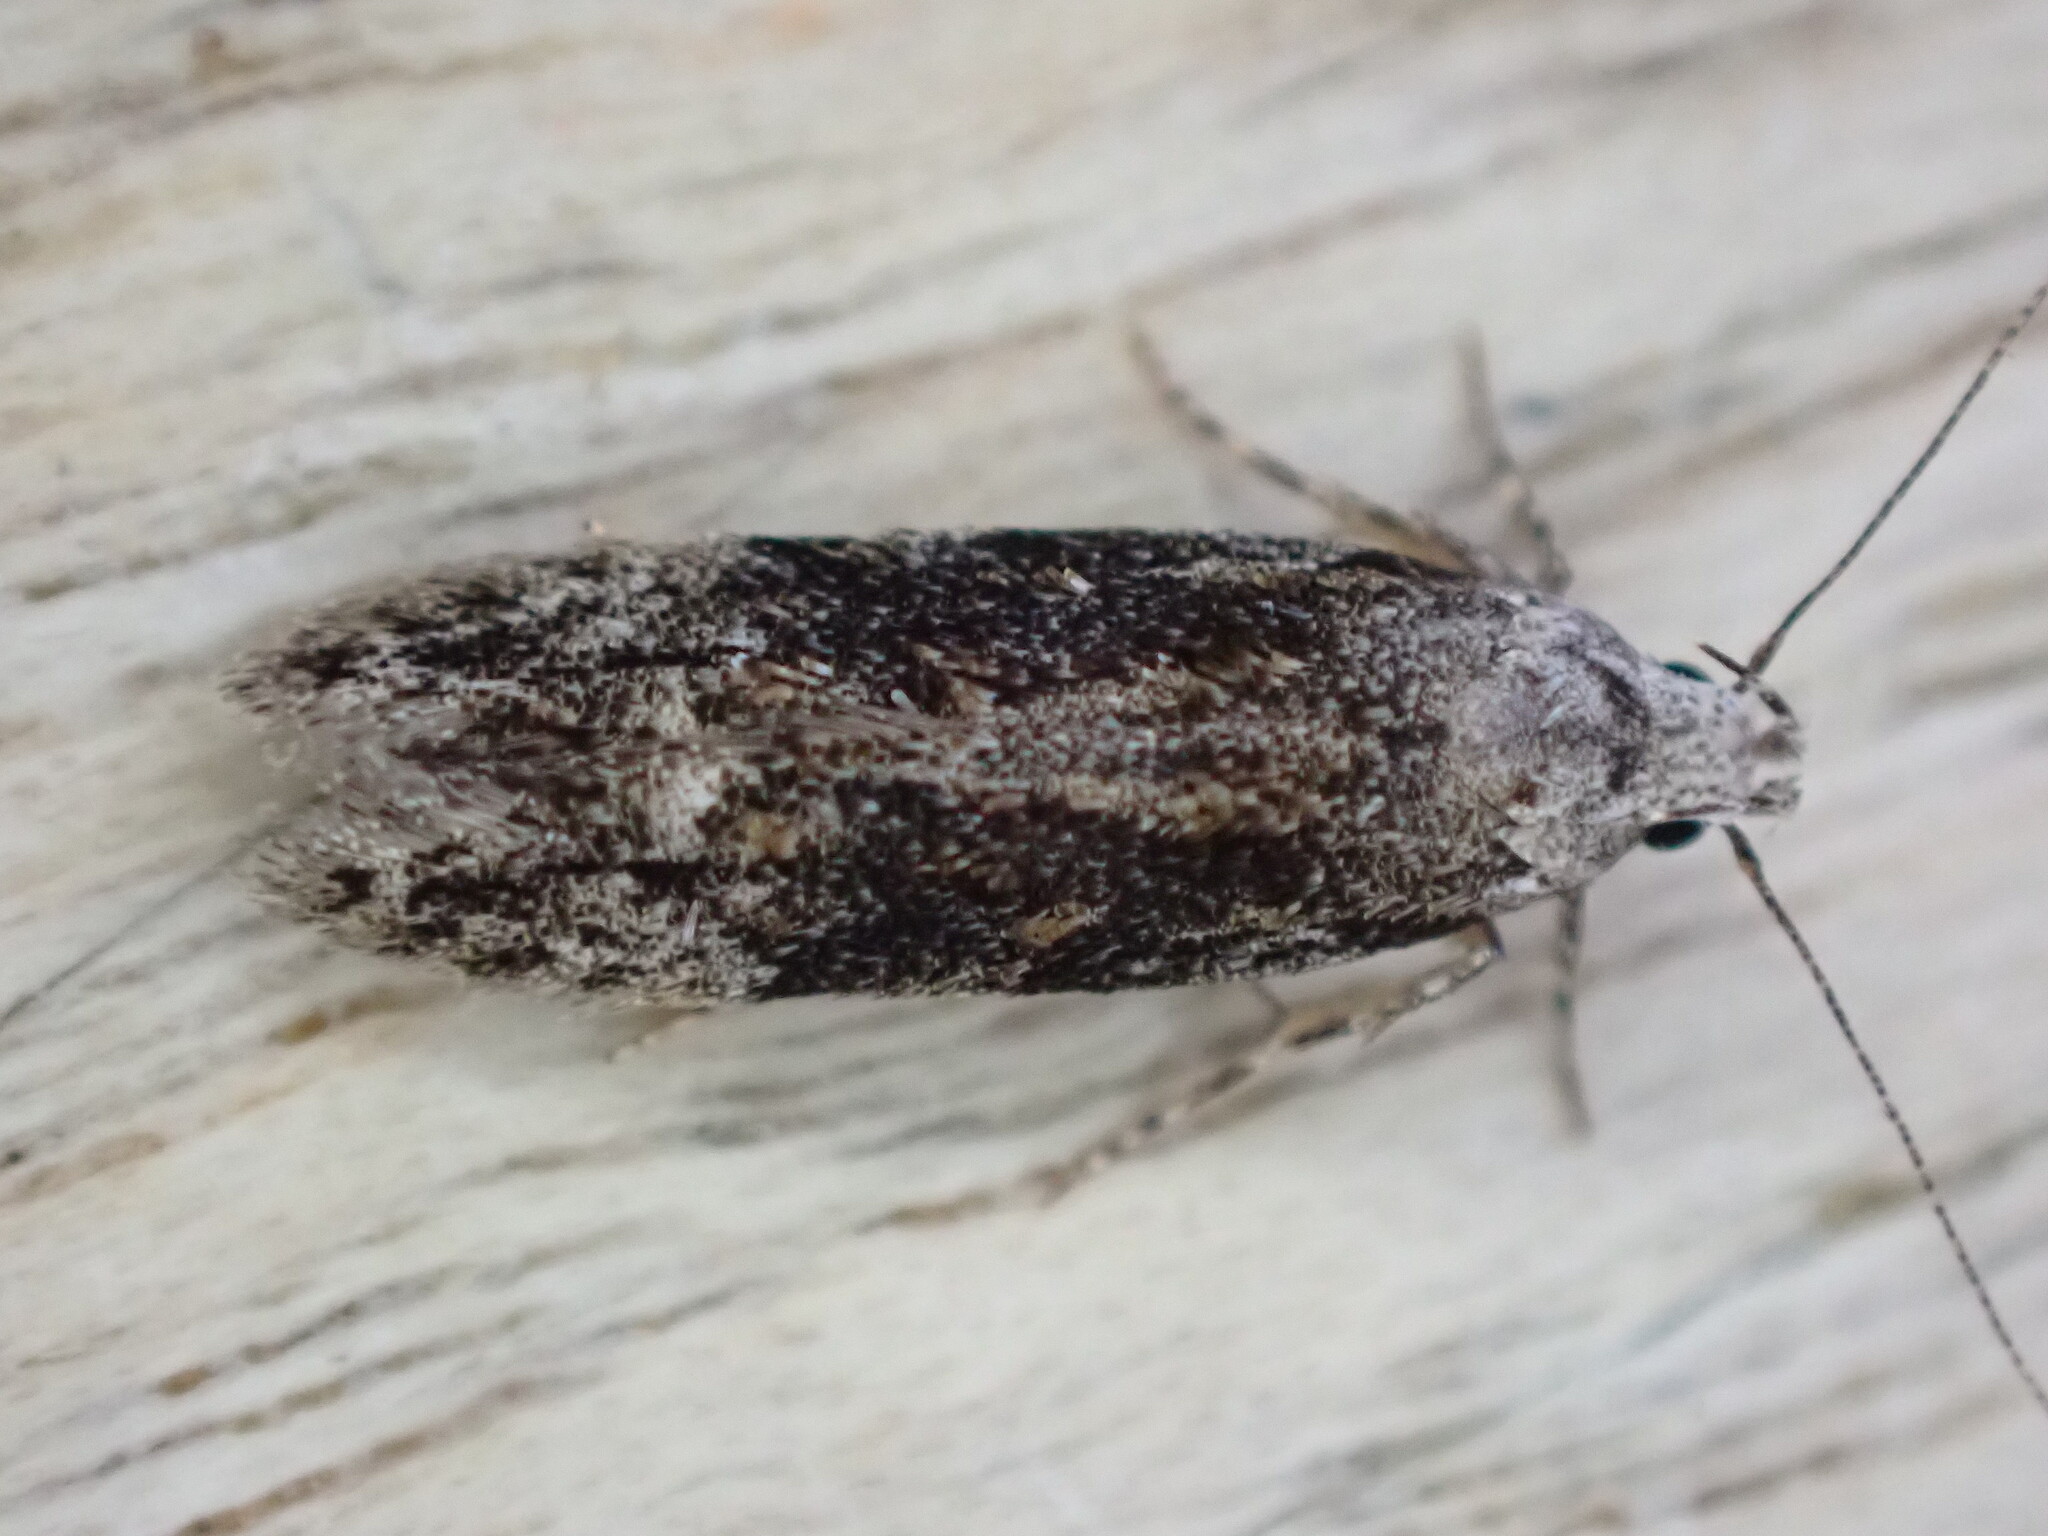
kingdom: Animalia
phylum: Arthropoda
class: Insecta
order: Lepidoptera
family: Gelechiidae
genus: Carpatolechia
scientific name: Carpatolechia fugitivella
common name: Elm groundling
